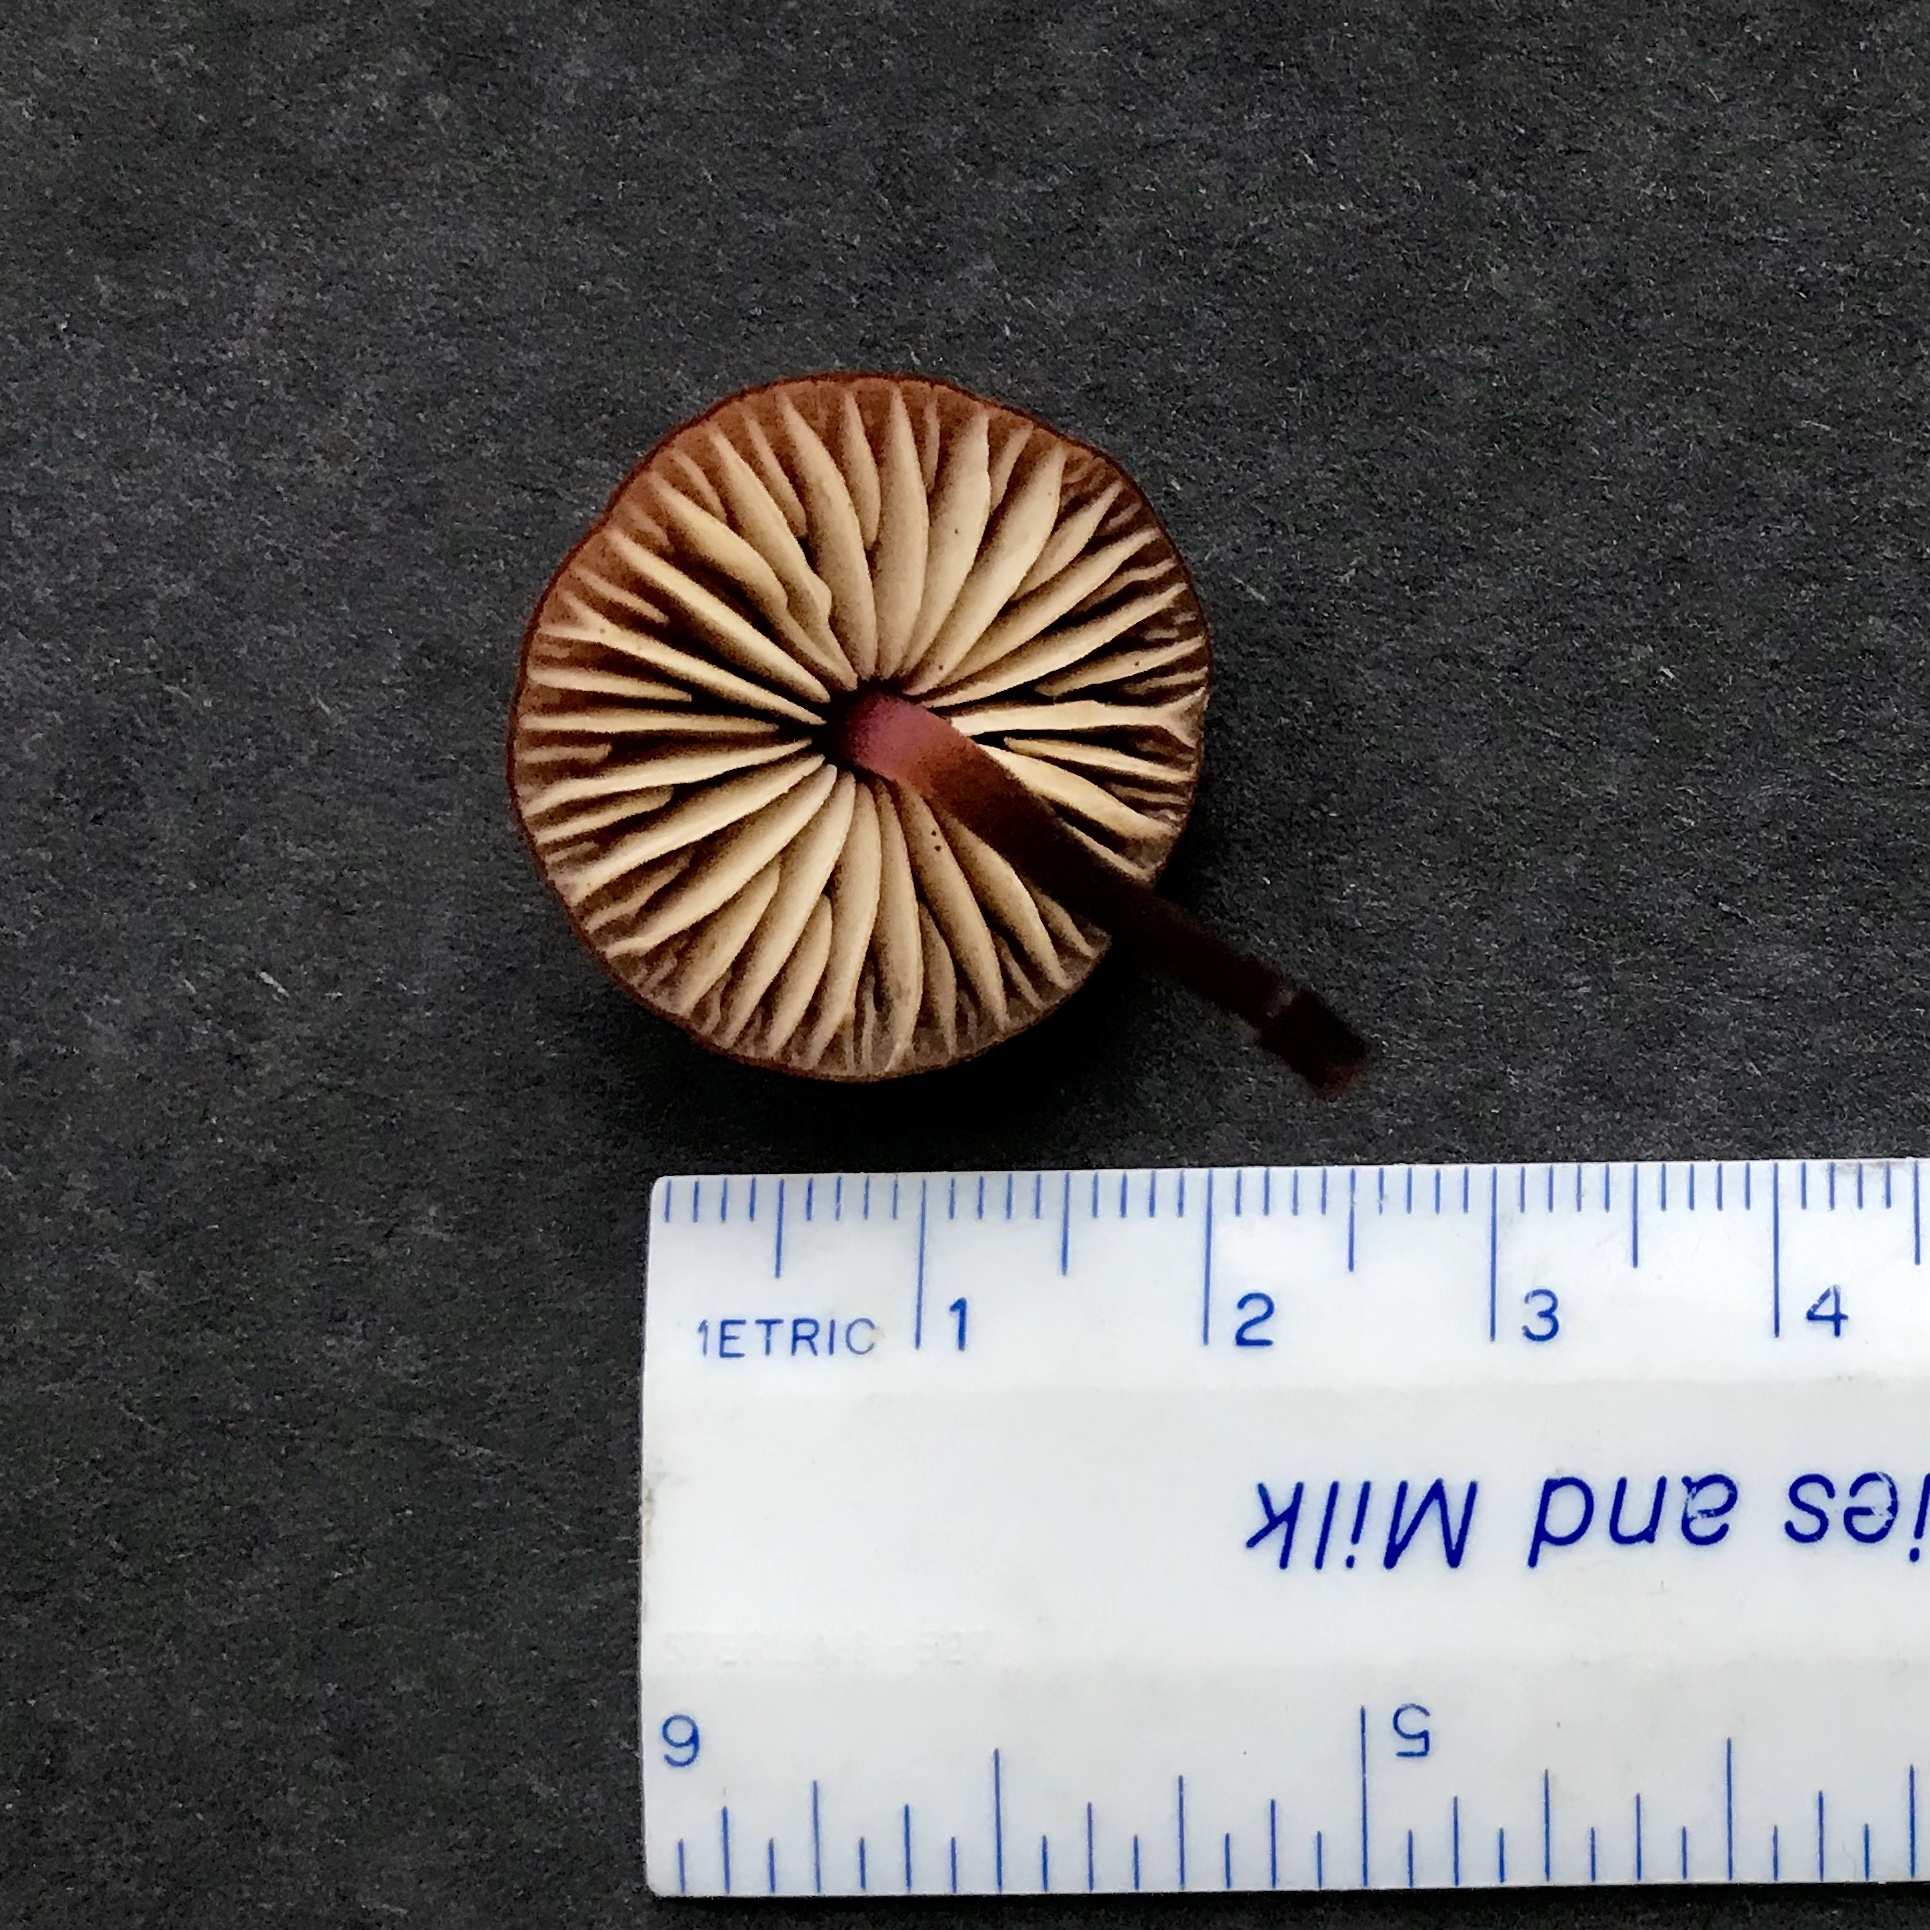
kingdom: Fungi
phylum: Basidiomycota
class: Agaricomycetes
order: Agaricales
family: Marasmiaceae
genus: Marasmius
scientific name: Marasmius plicatulus
